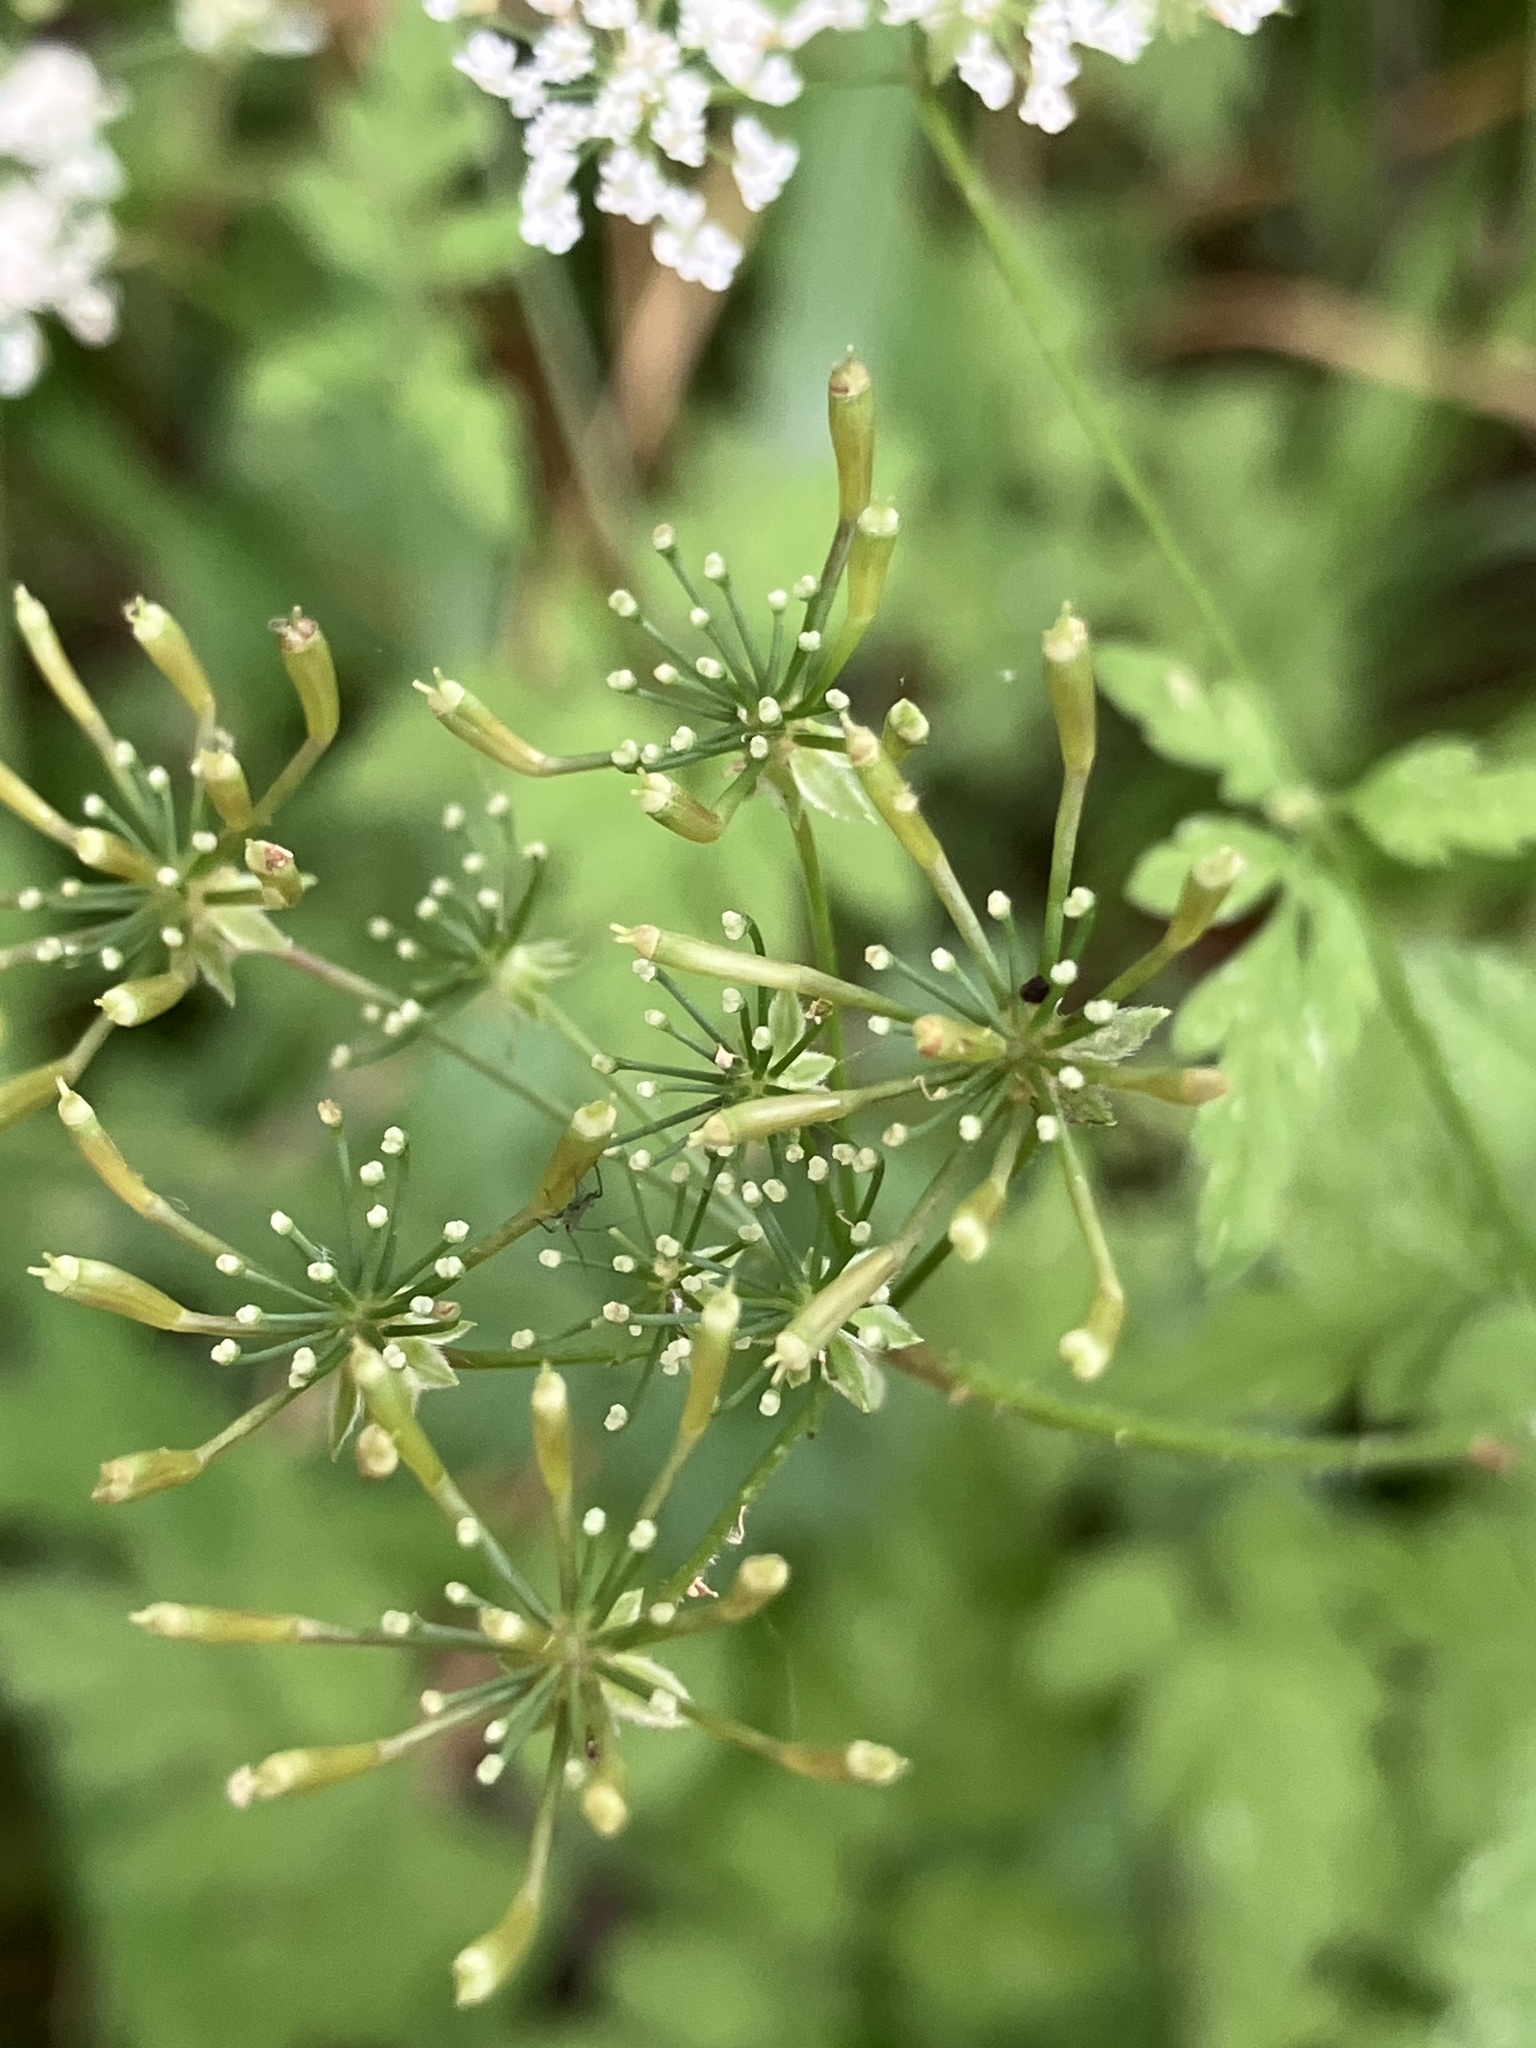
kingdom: Plantae
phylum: Tracheophyta
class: Magnoliopsida
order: Apiales
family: Apiaceae
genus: Chaerophyllum
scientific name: Chaerophyllum temulum
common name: Rough chervil
